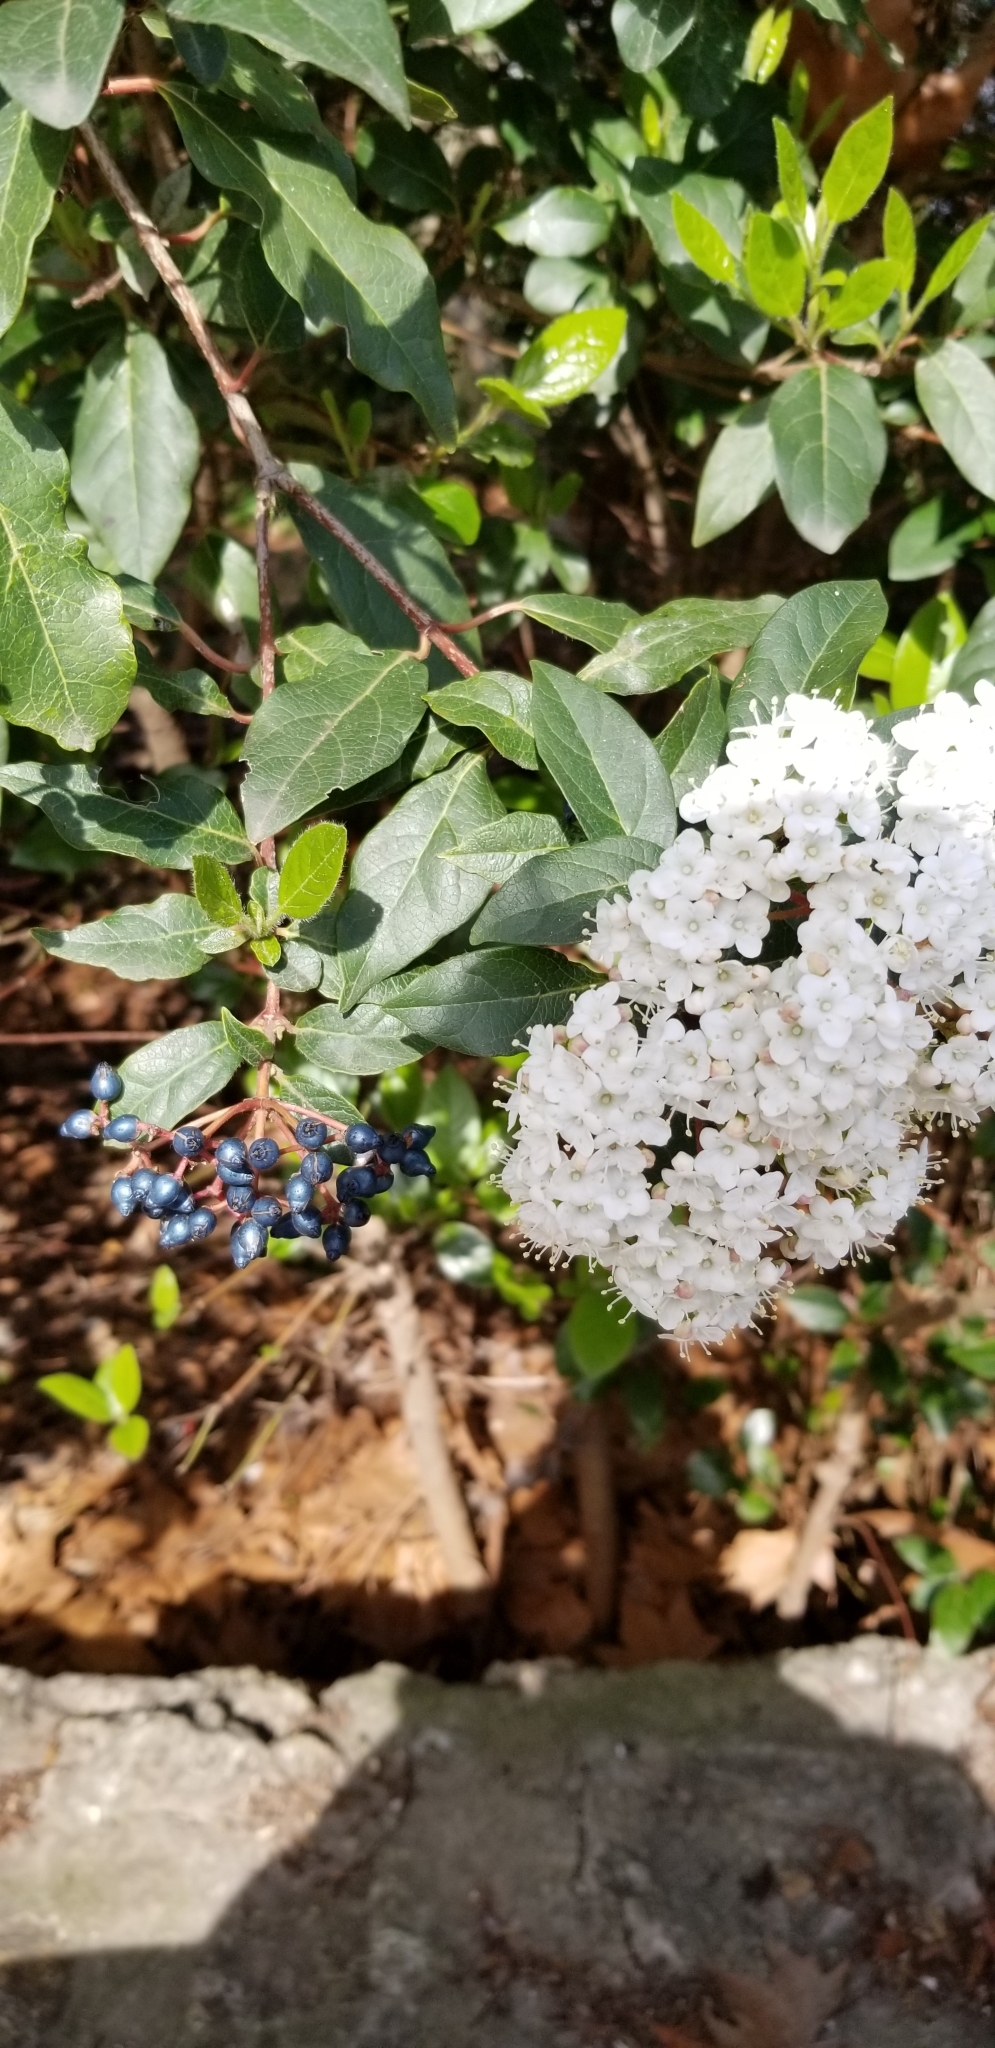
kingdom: Plantae
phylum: Tracheophyta
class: Magnoliopsida
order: Dipsacales
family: Viburnaceae
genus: Viburnum
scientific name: Viburnum tinus
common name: Laurustinus
